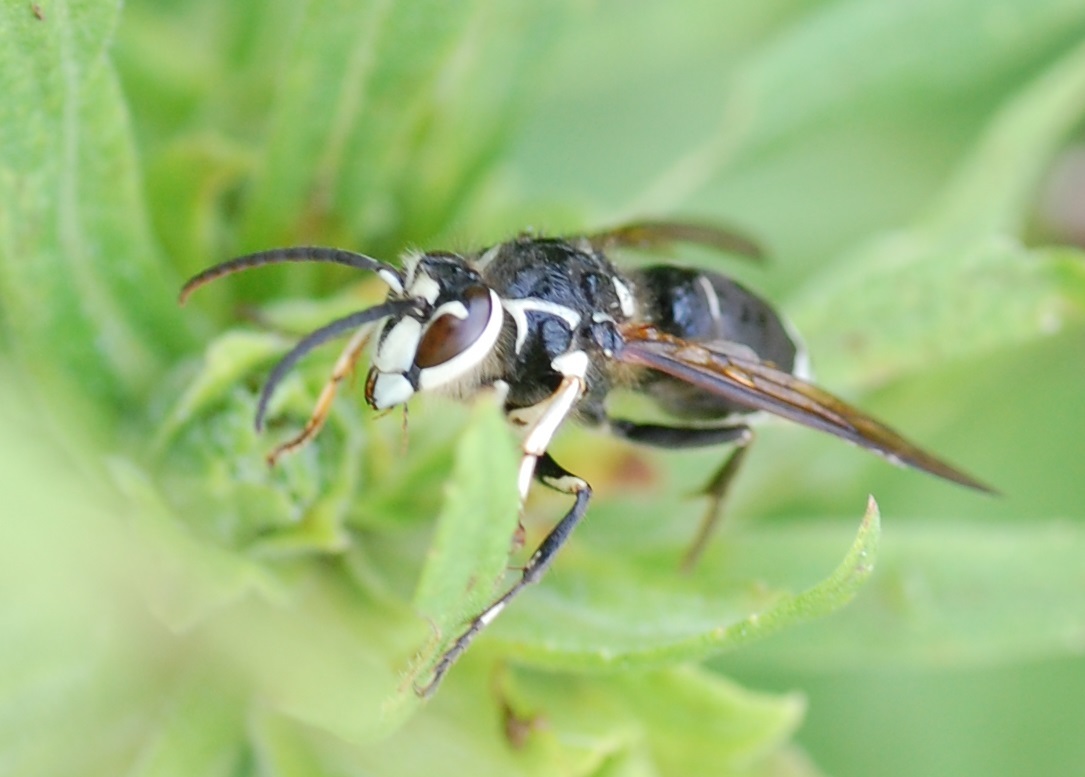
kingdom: Animalia
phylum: Arthropoda
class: Insecta
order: Hymenoptera
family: Vespidae
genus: Dolichovespula
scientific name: Dolichovespula maculata
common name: Bald-faced hornet
